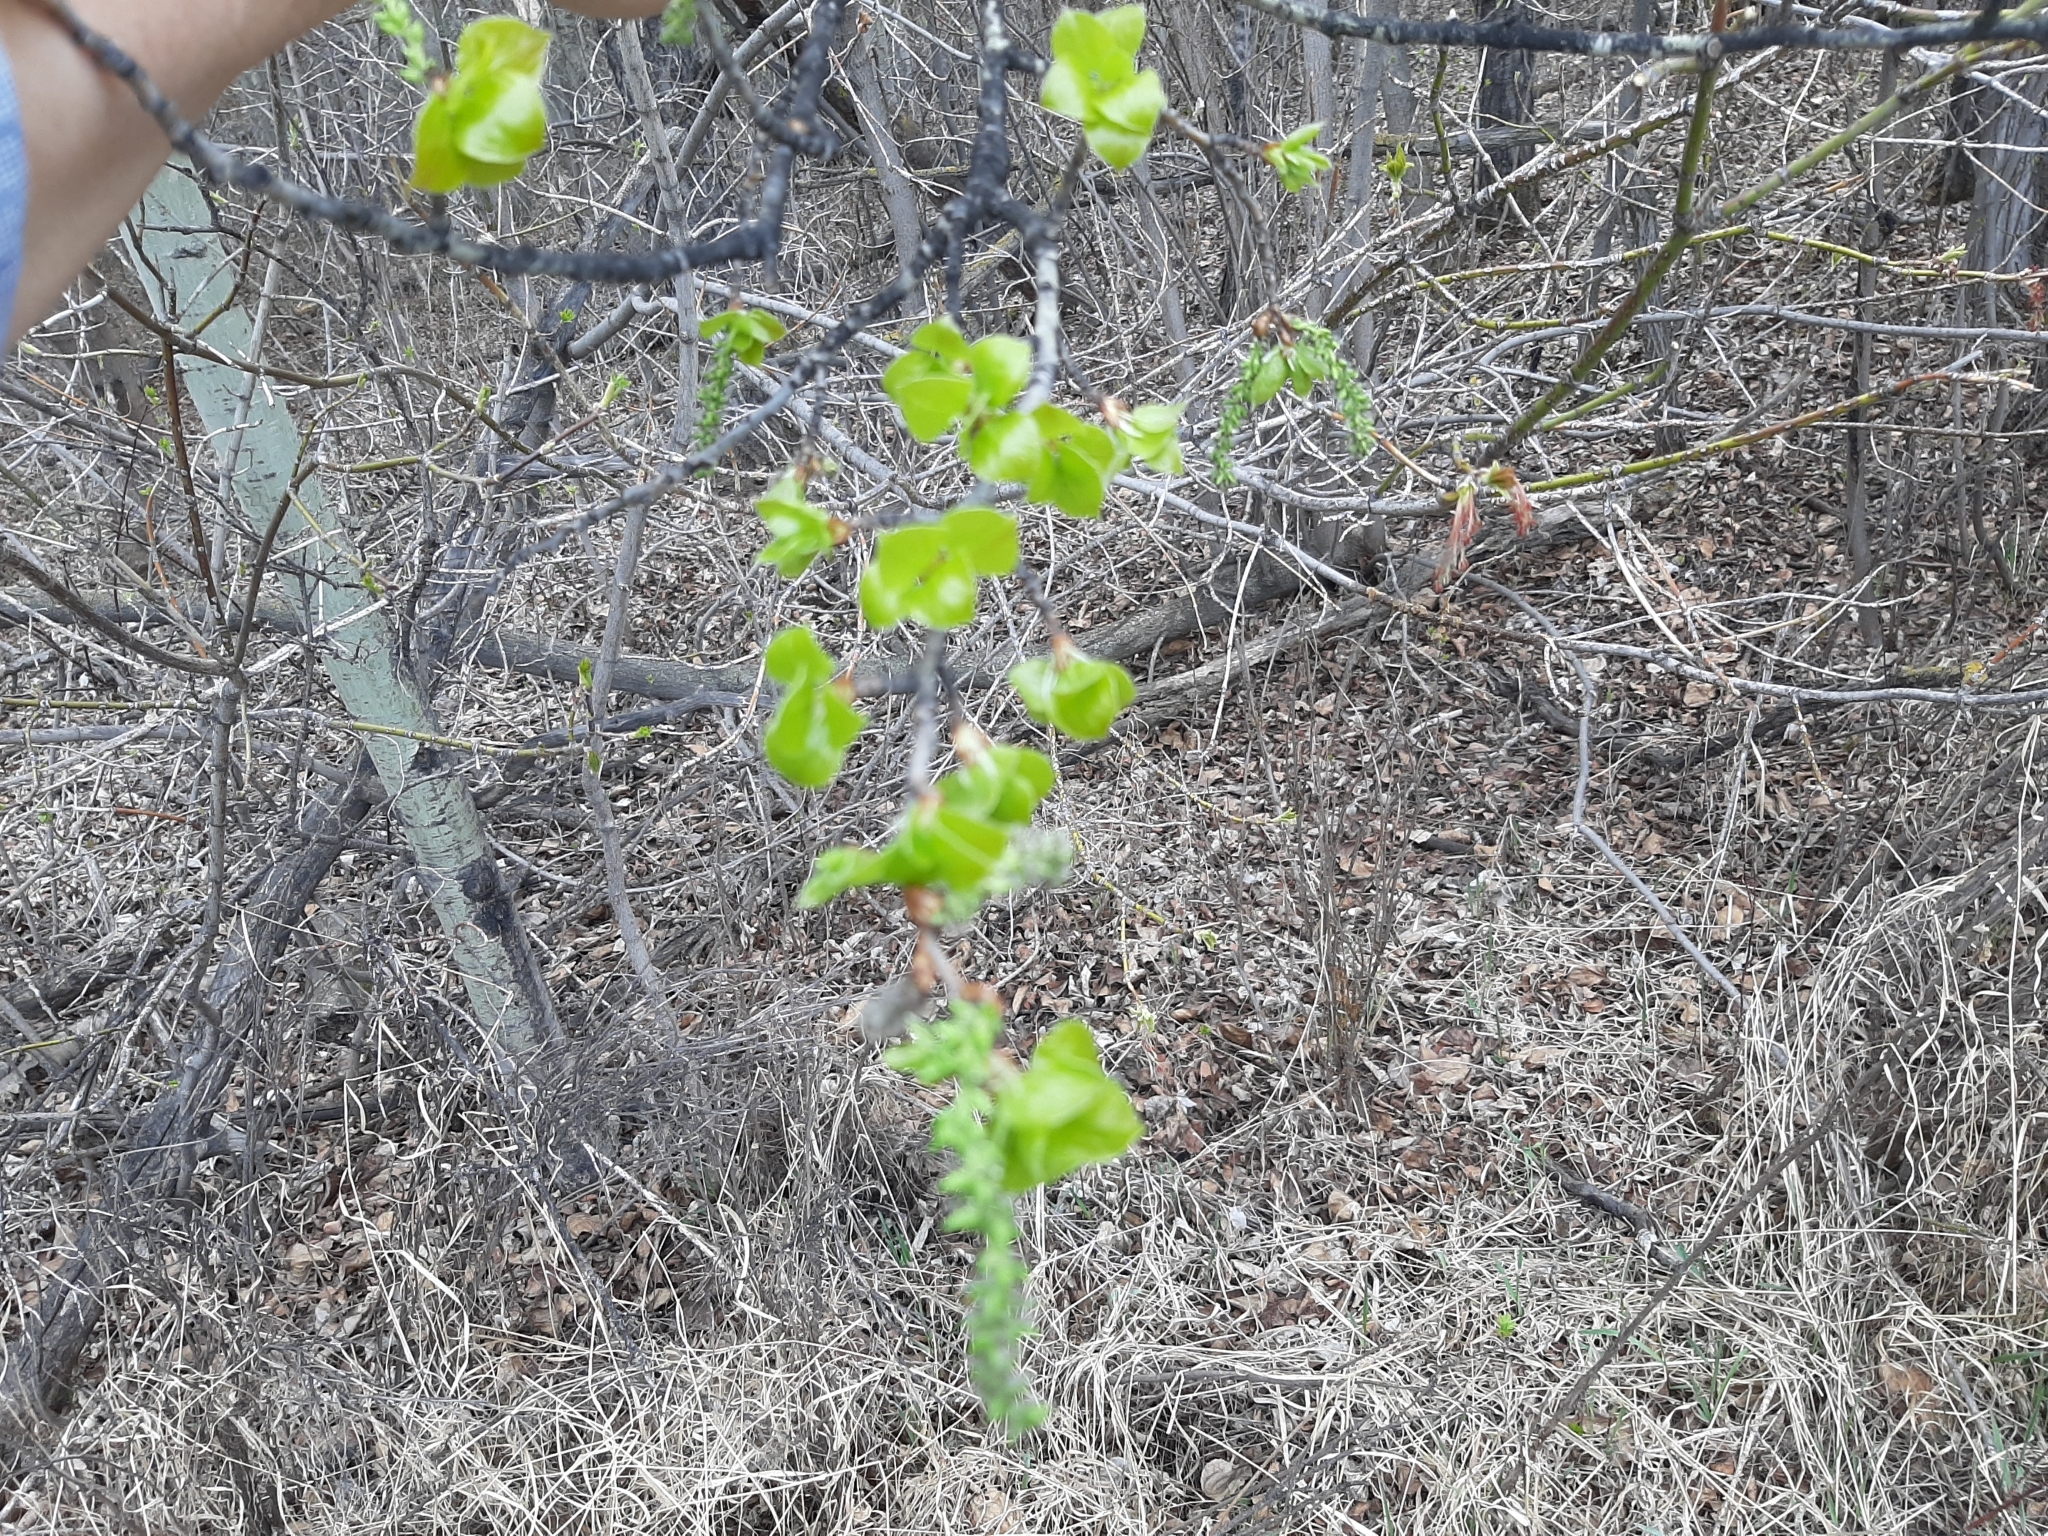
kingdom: Plantae
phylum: Tracheophyta
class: Magnoliopsida
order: Malpighiales
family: Salicaceae
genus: Populus
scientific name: Populus tremuloides
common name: Quaking aspen
